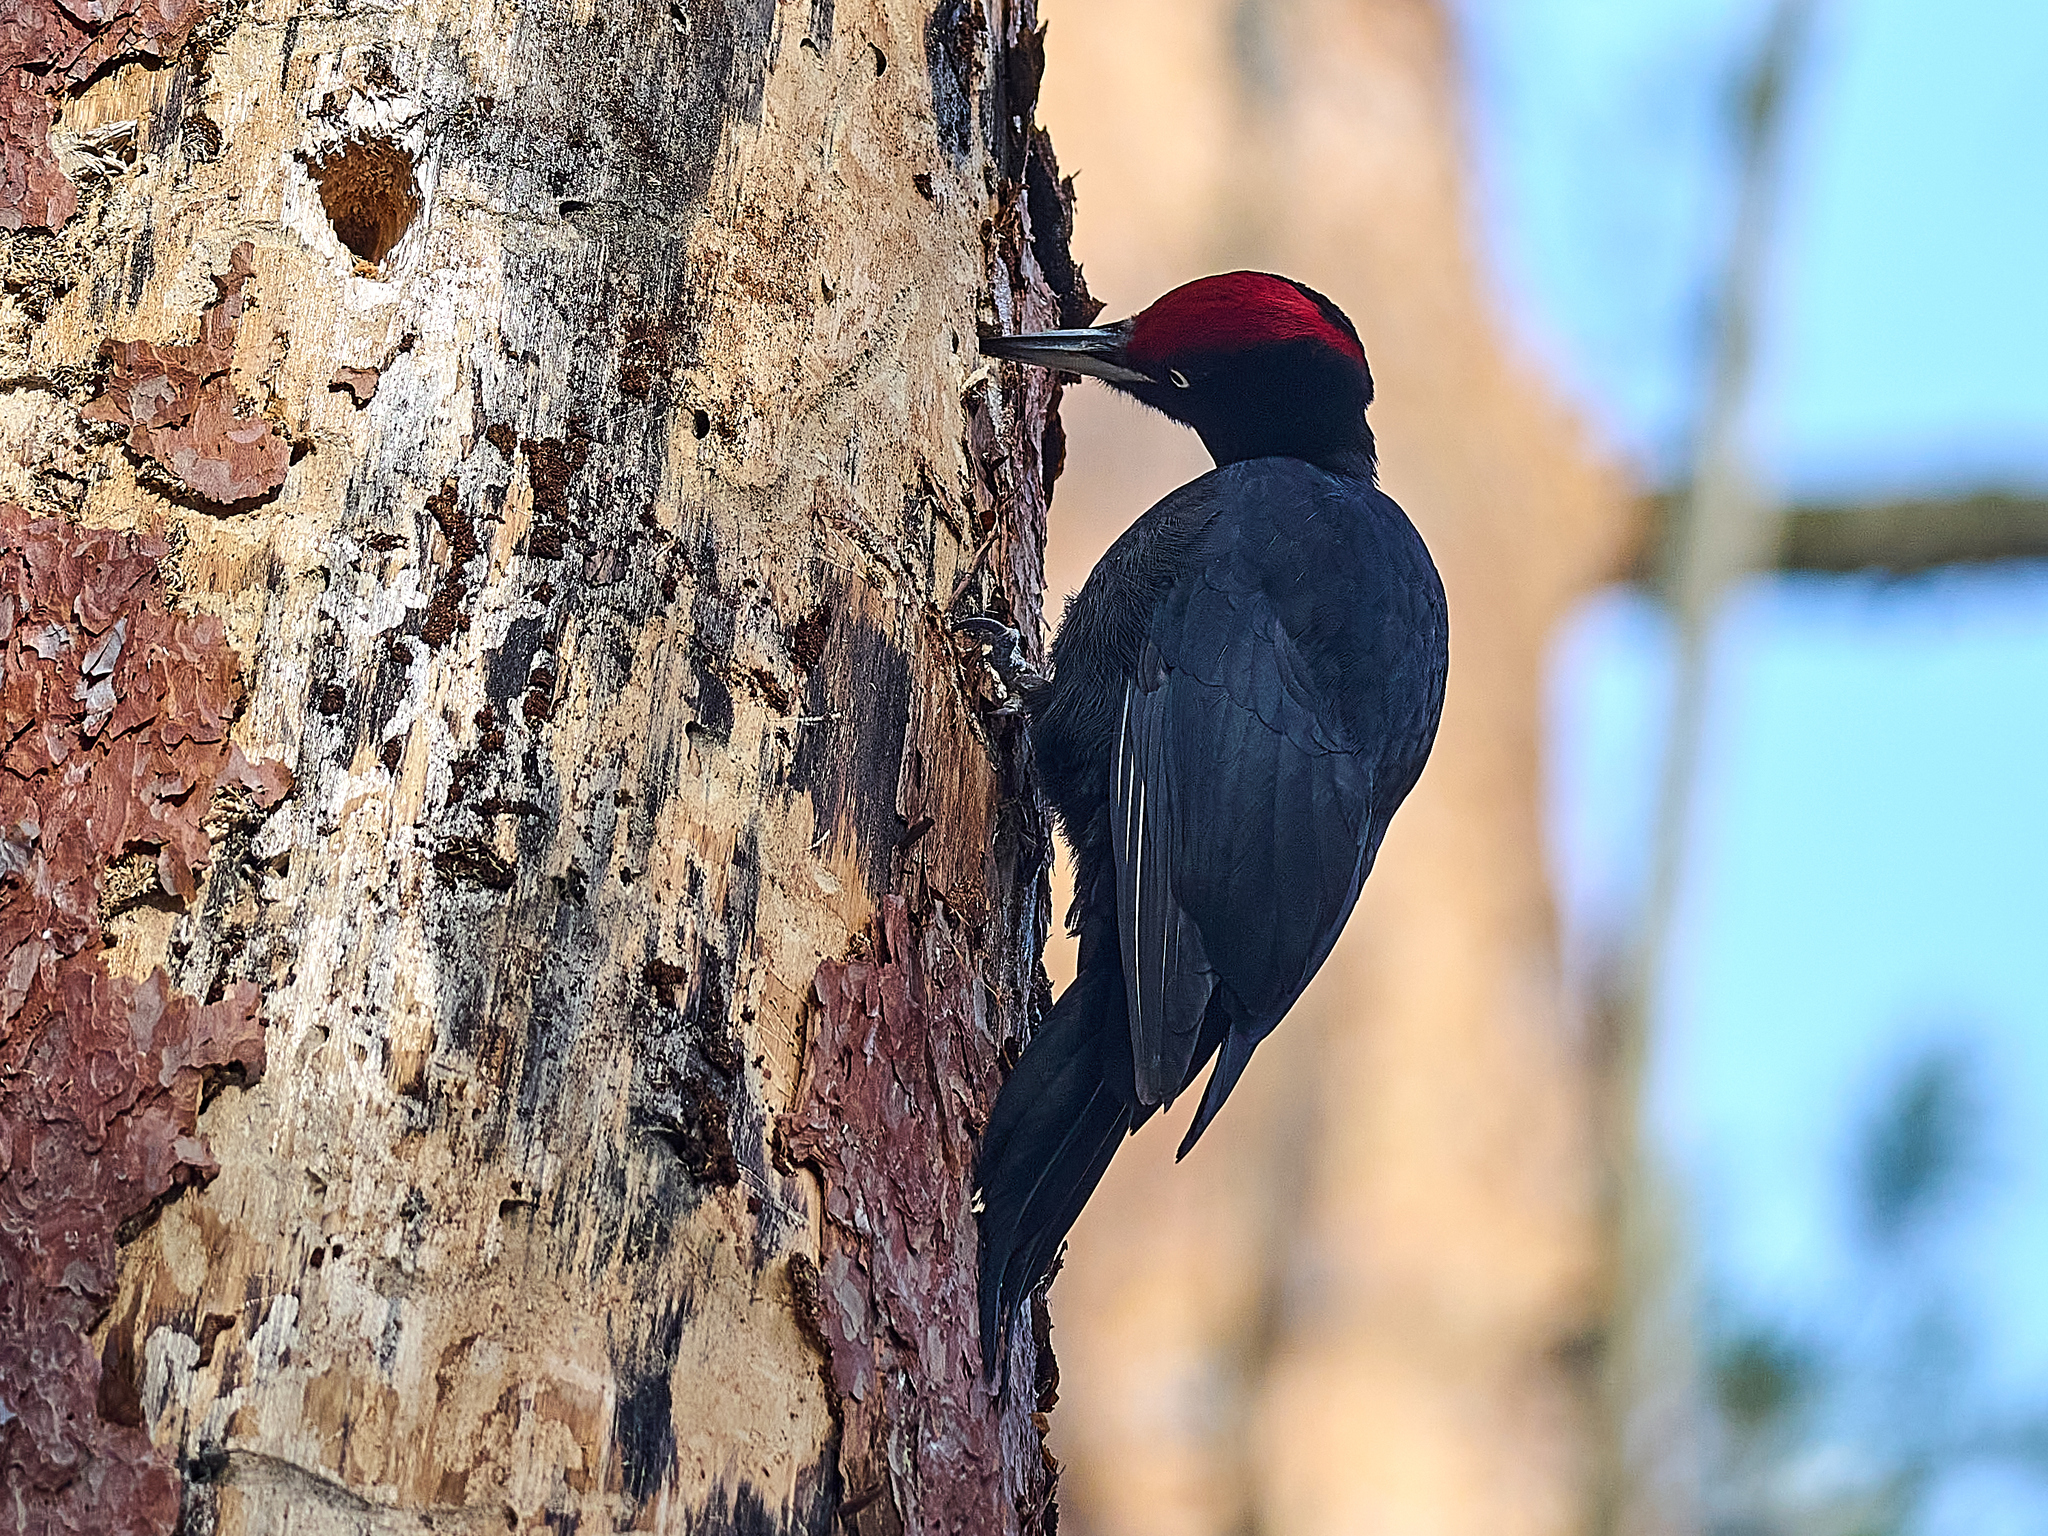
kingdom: Animalia
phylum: Chordata
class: Aves
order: Piciformes
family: Picidae
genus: Dryocopus
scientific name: Dryocopus martius
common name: Black woodpecker
